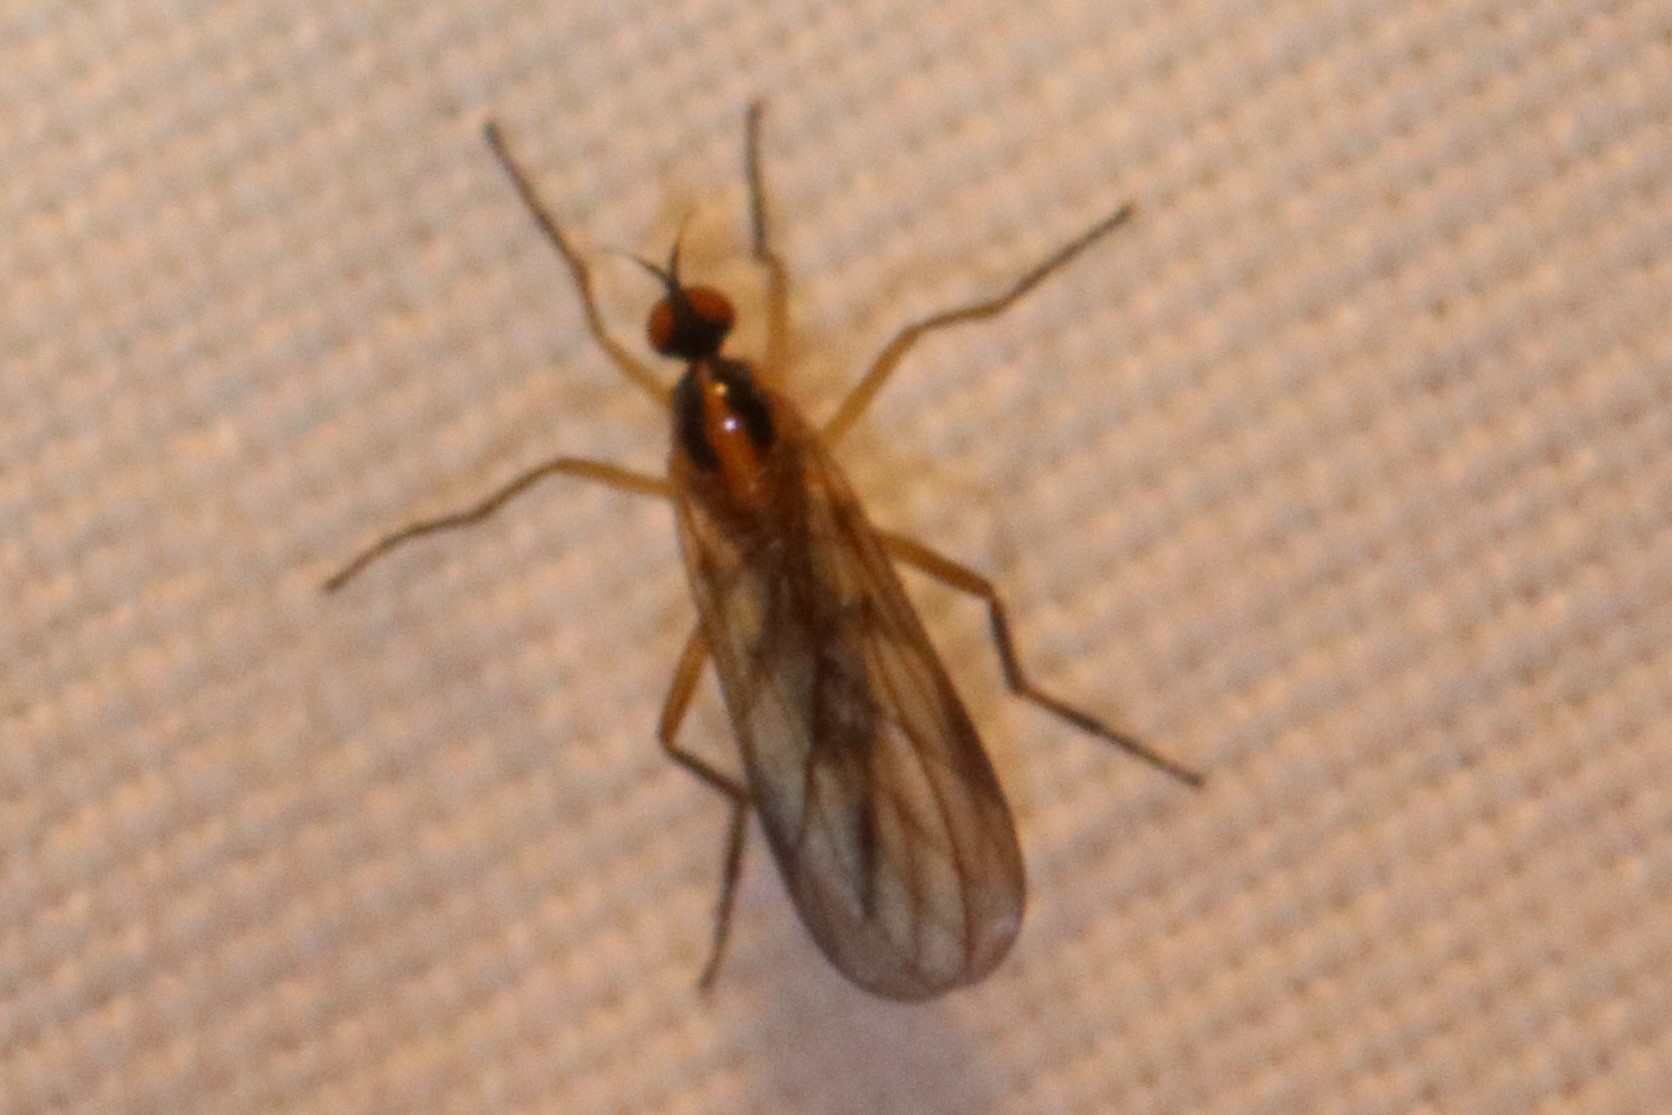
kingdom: Animalia
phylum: Arthropoda
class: Insecta
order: Diptera
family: Empididae
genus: Rhamphomyia
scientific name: Rhamphomyia vittata
